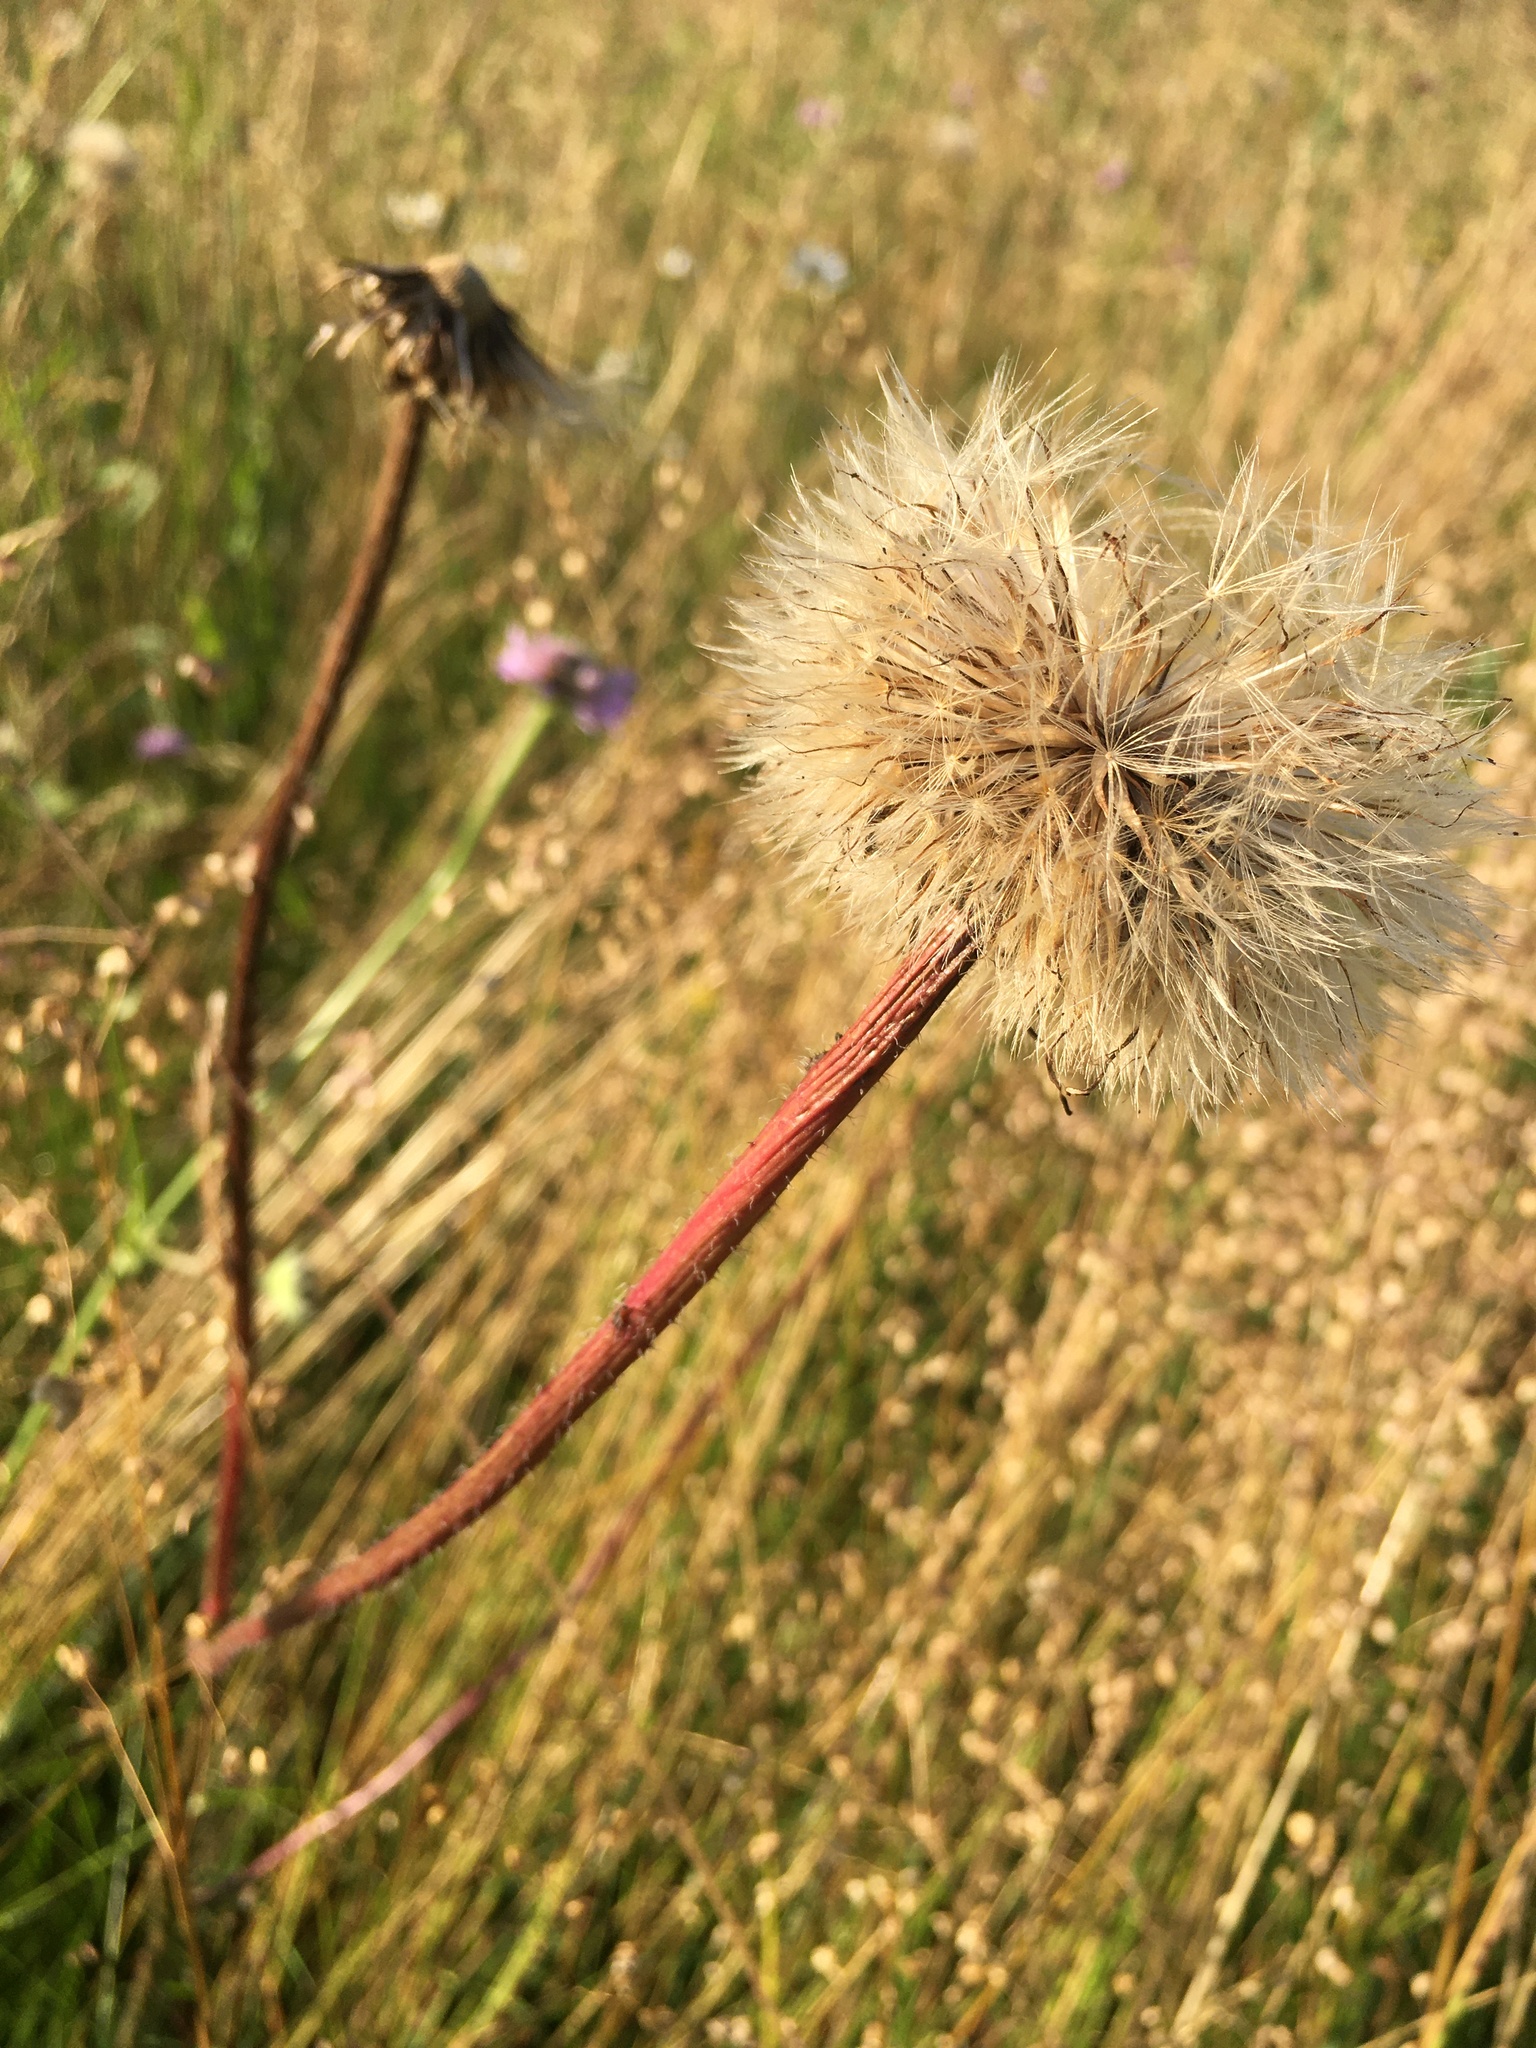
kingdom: Plantae
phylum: Tracheophyta
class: Magnoliopsida
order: Asterales
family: Asteraceae
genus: Trommsdorffia
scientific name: Trommsdorffia maculata
